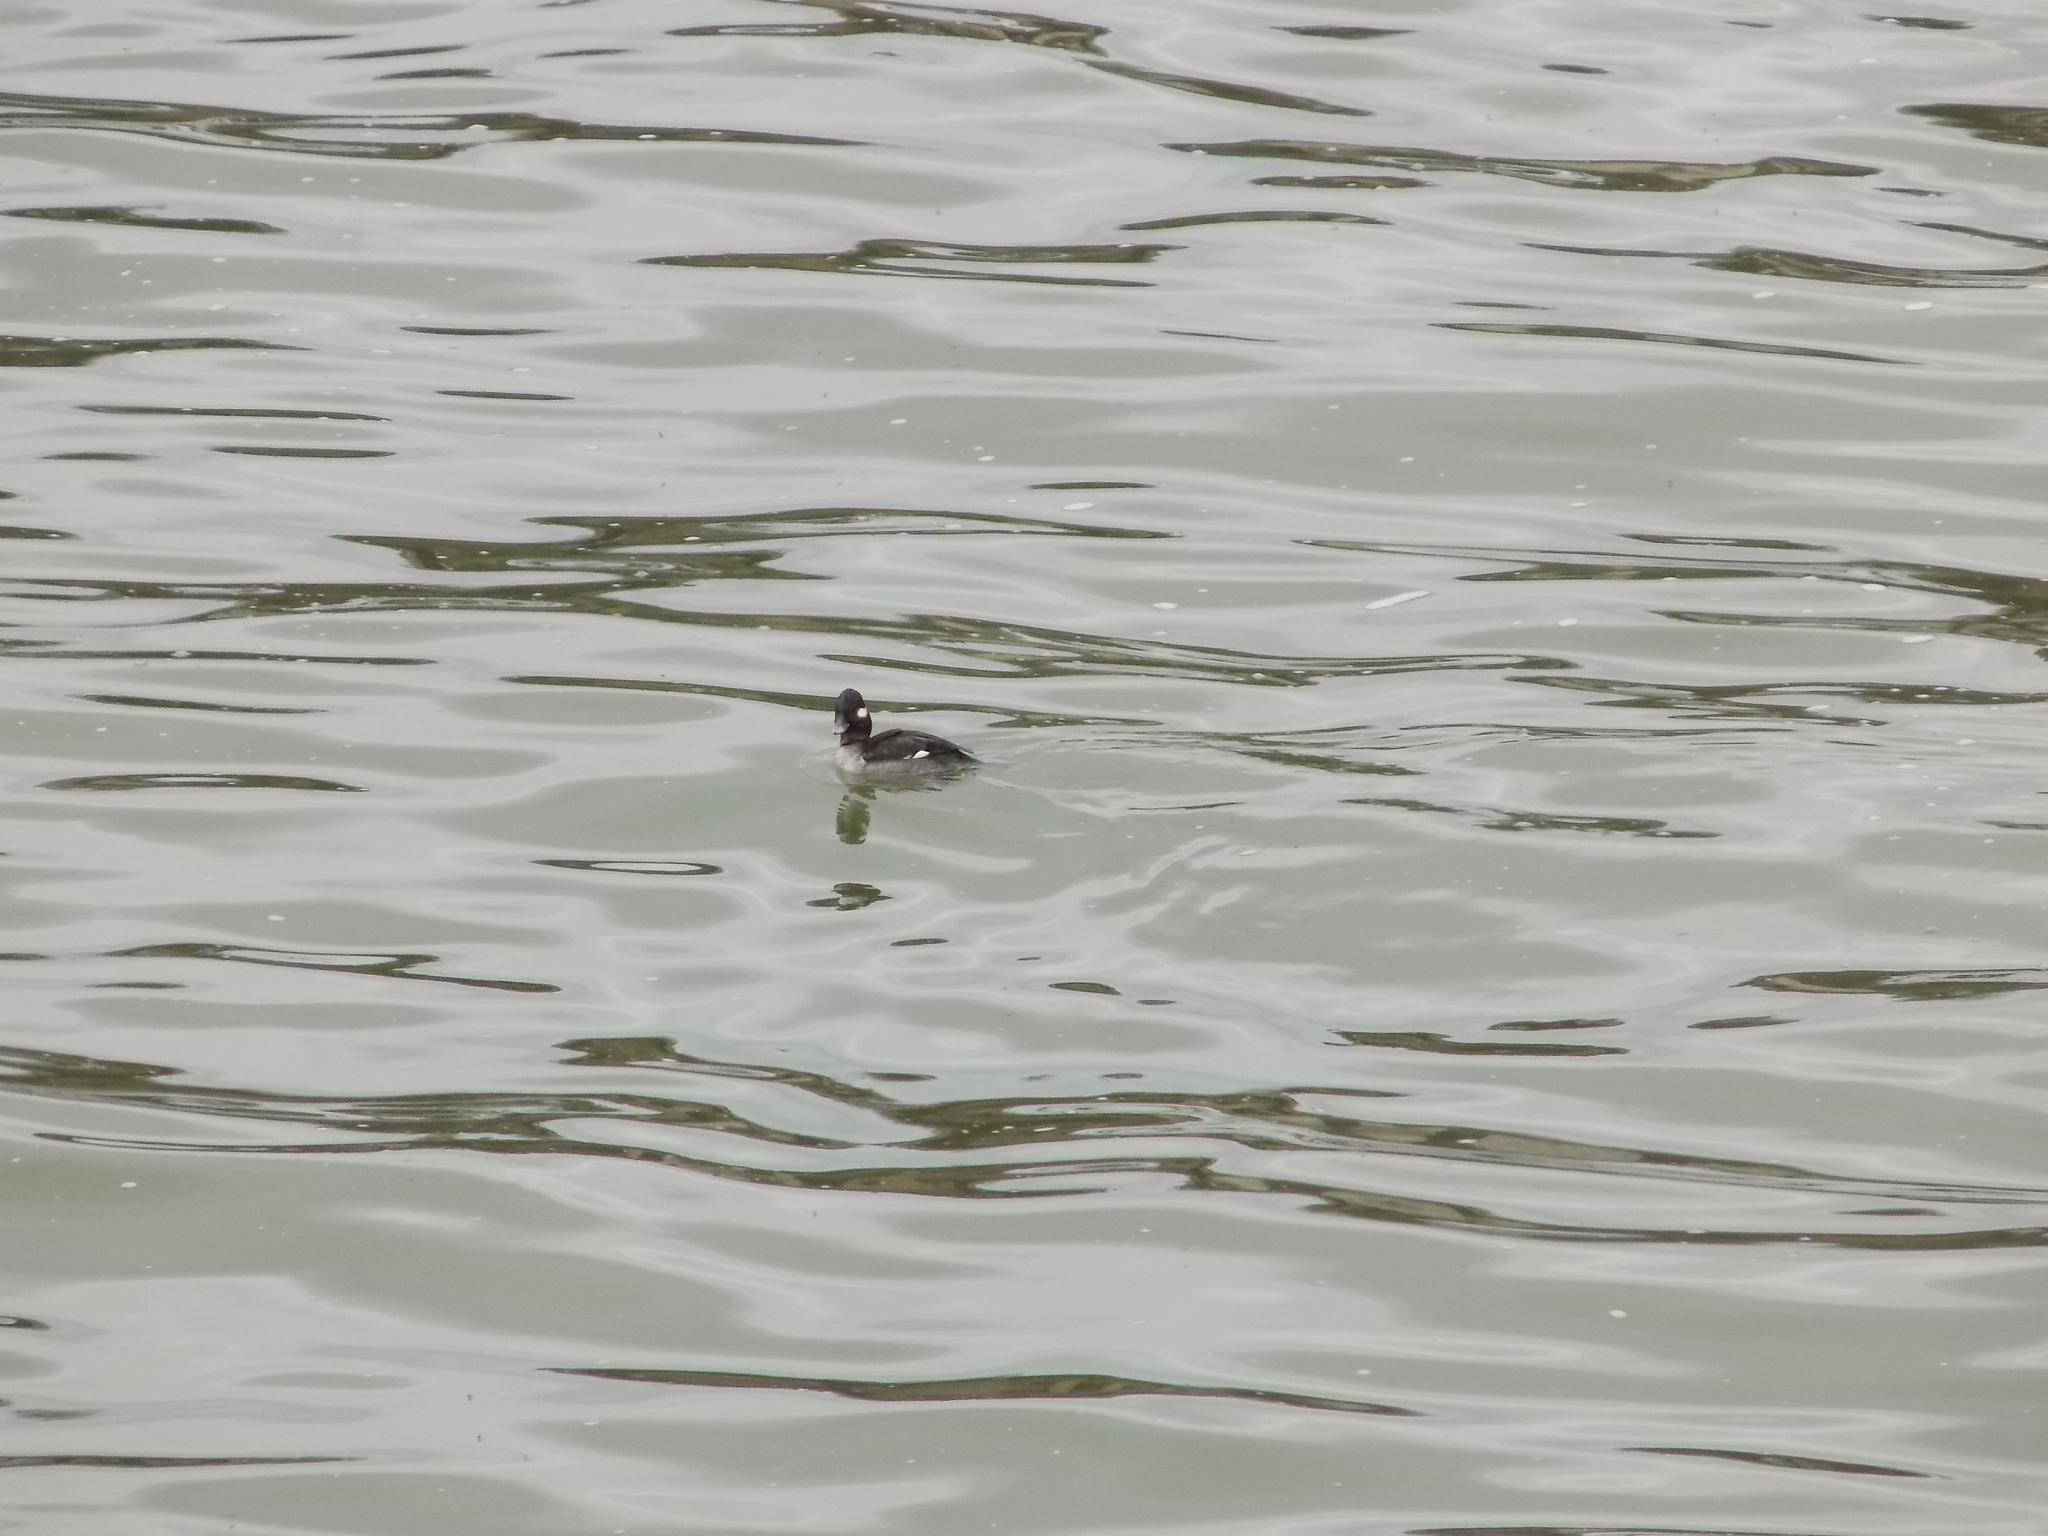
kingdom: Animalia
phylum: Chordata
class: Aves
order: Anseriformes
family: Anatidae
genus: Bucephala
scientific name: Bucephala albeola
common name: Bufflehead
